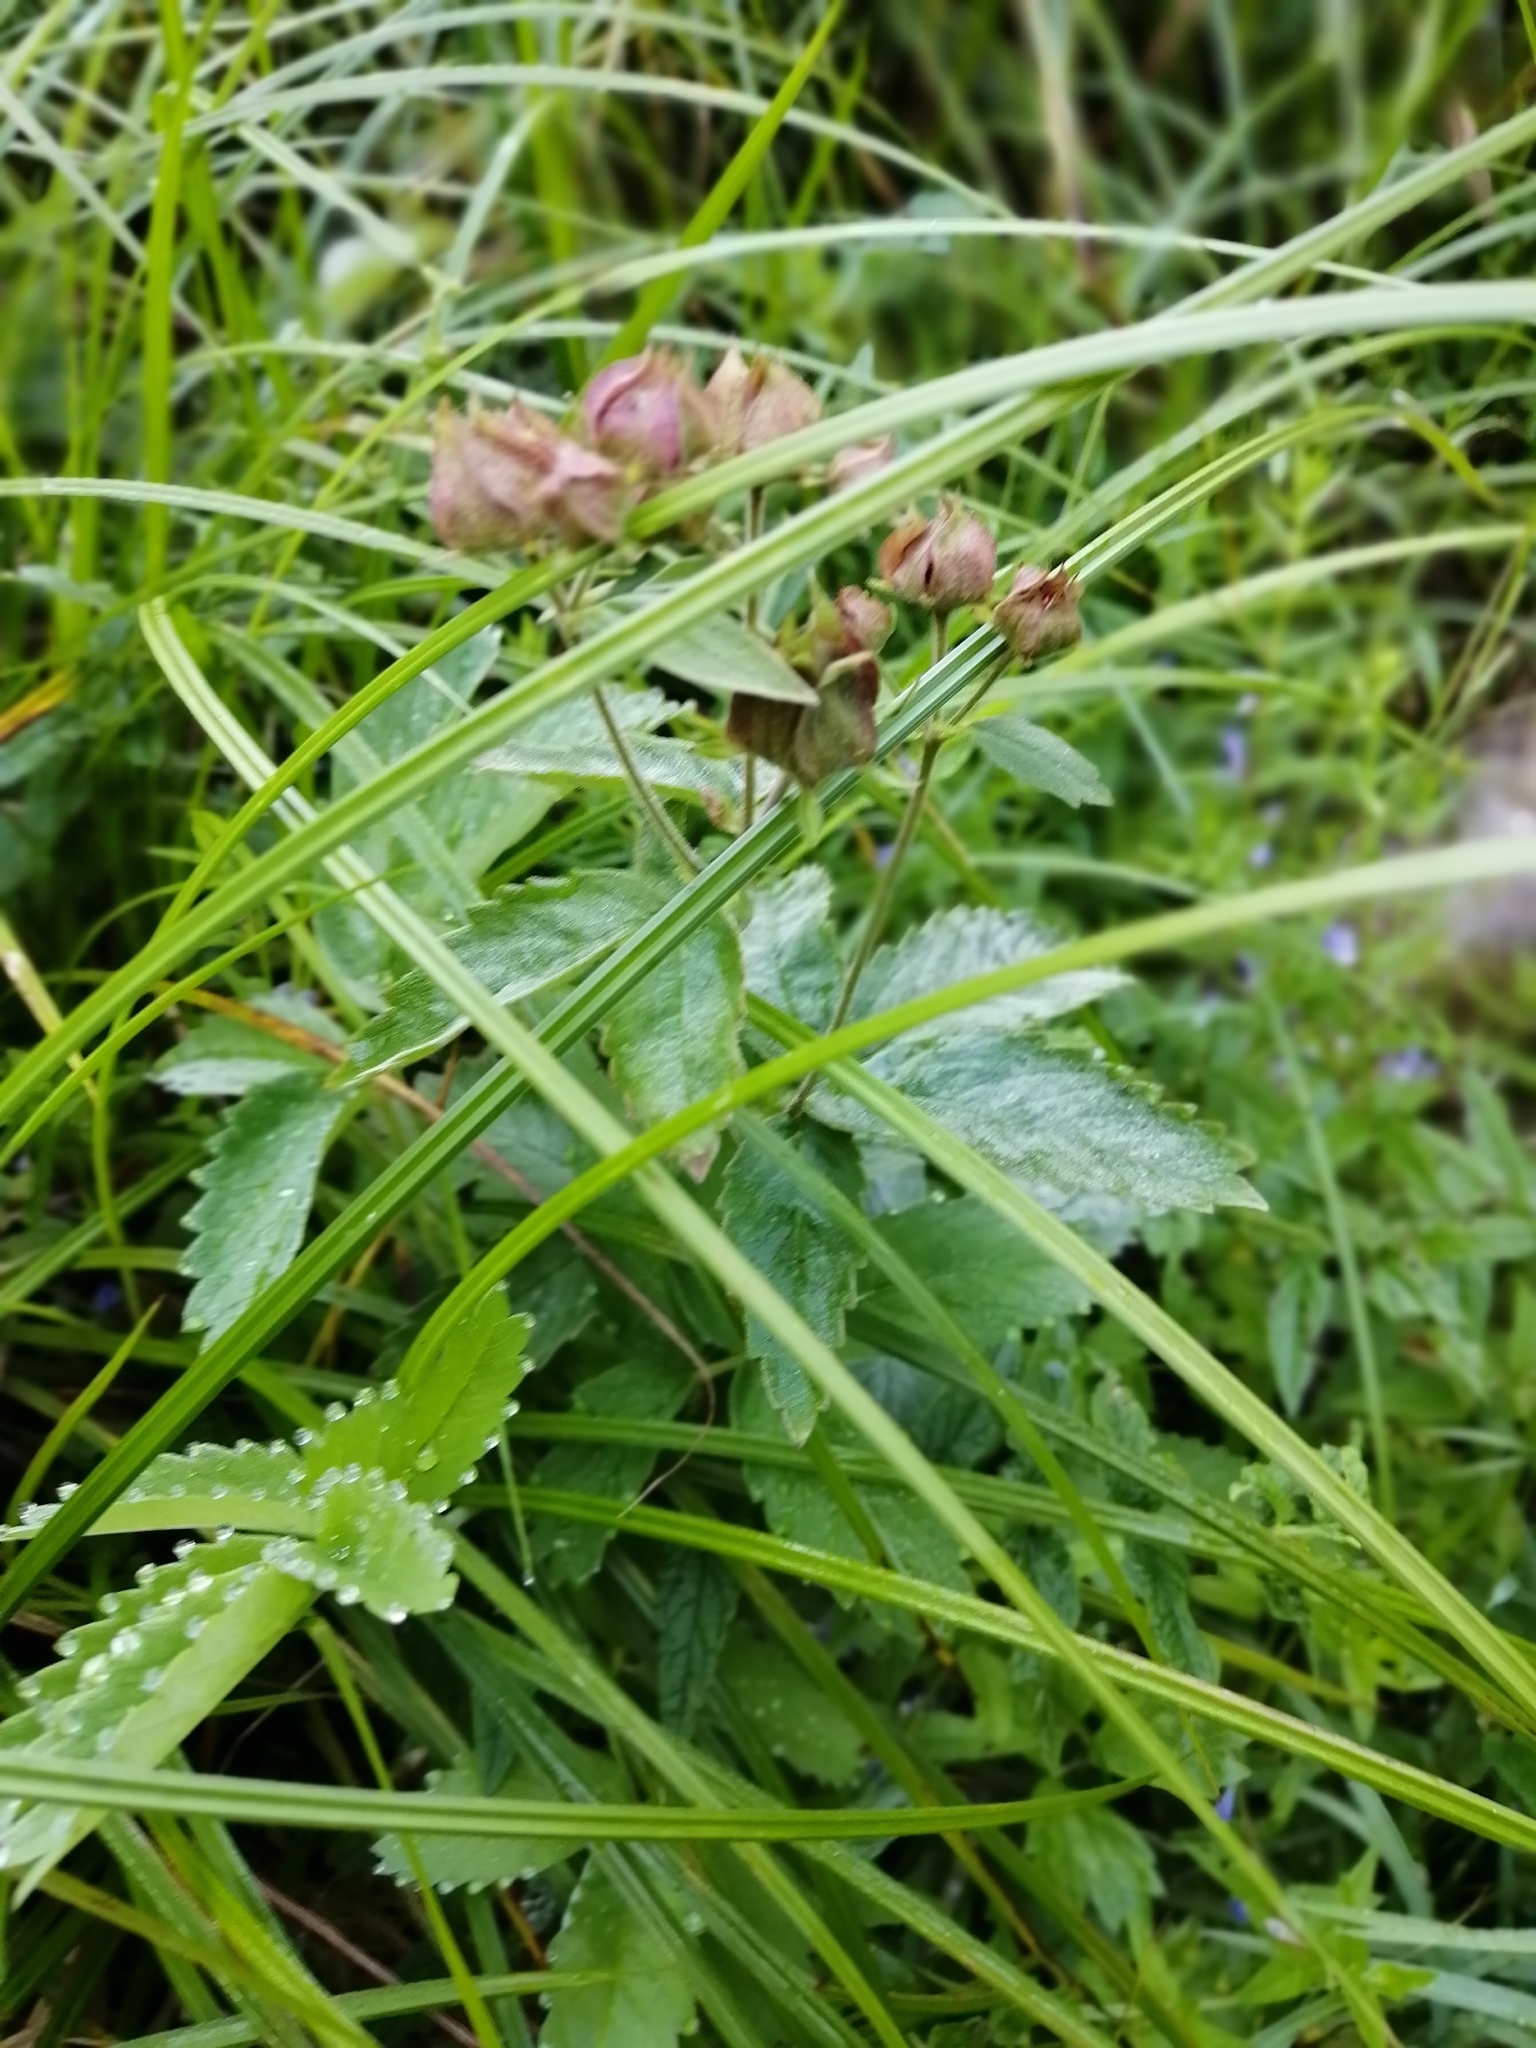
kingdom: Plantae
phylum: Tracheophyta
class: Magnoliopsida
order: Rosales
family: Rosaceae
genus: Comarum
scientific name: Comarum palustre
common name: Marsh cinquefoil
